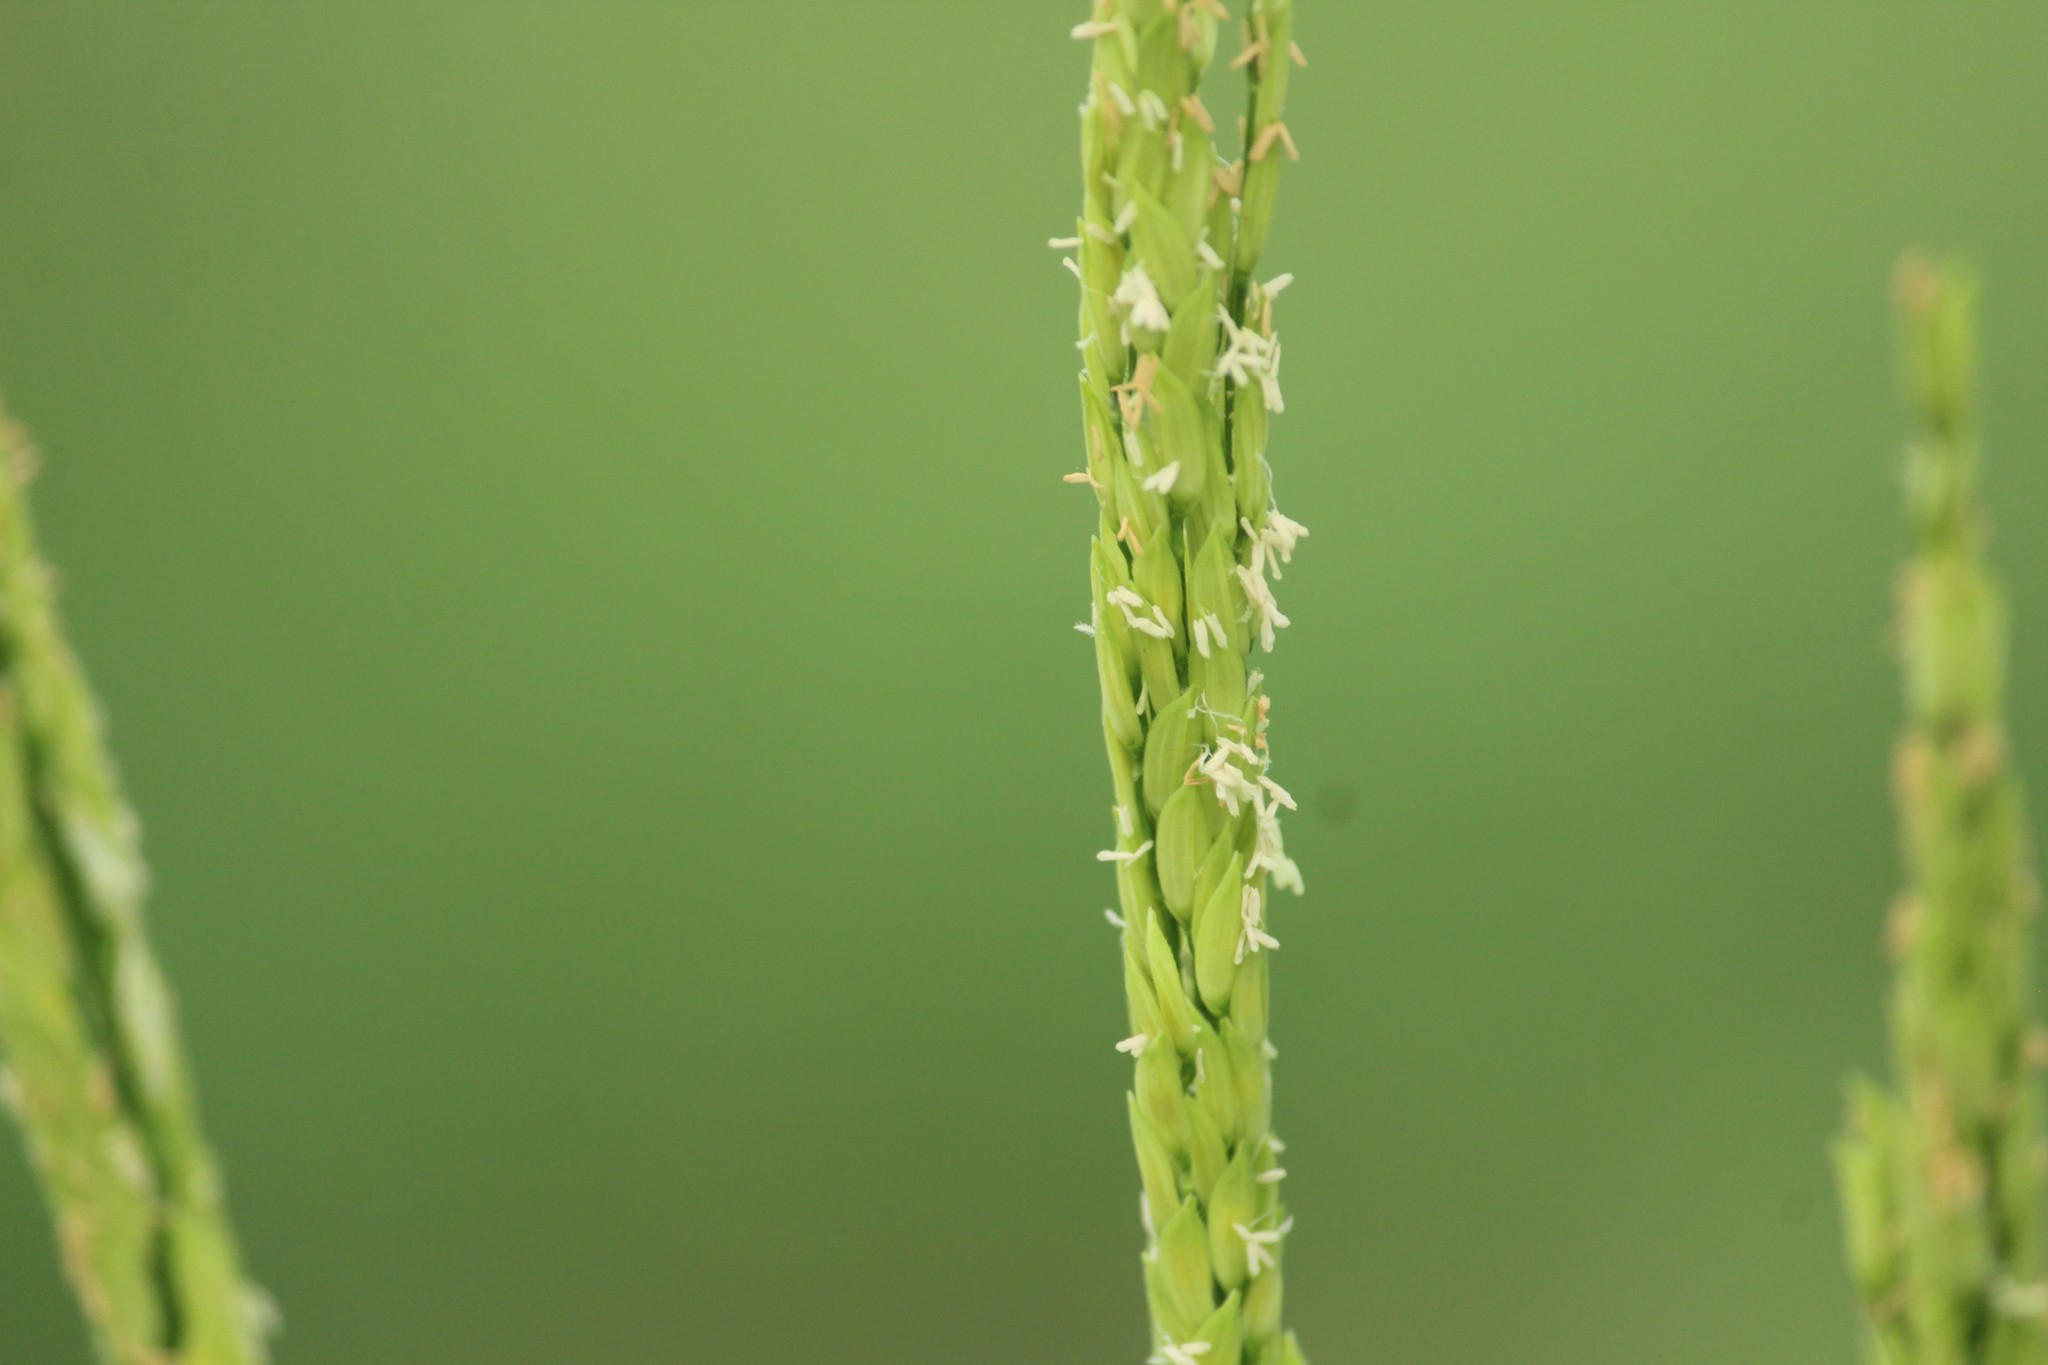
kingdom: Plantae
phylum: Tracheophyta
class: Liliopsida
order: Poales
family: Poaceae
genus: Oryza
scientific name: Oryza sativa
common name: Rice
